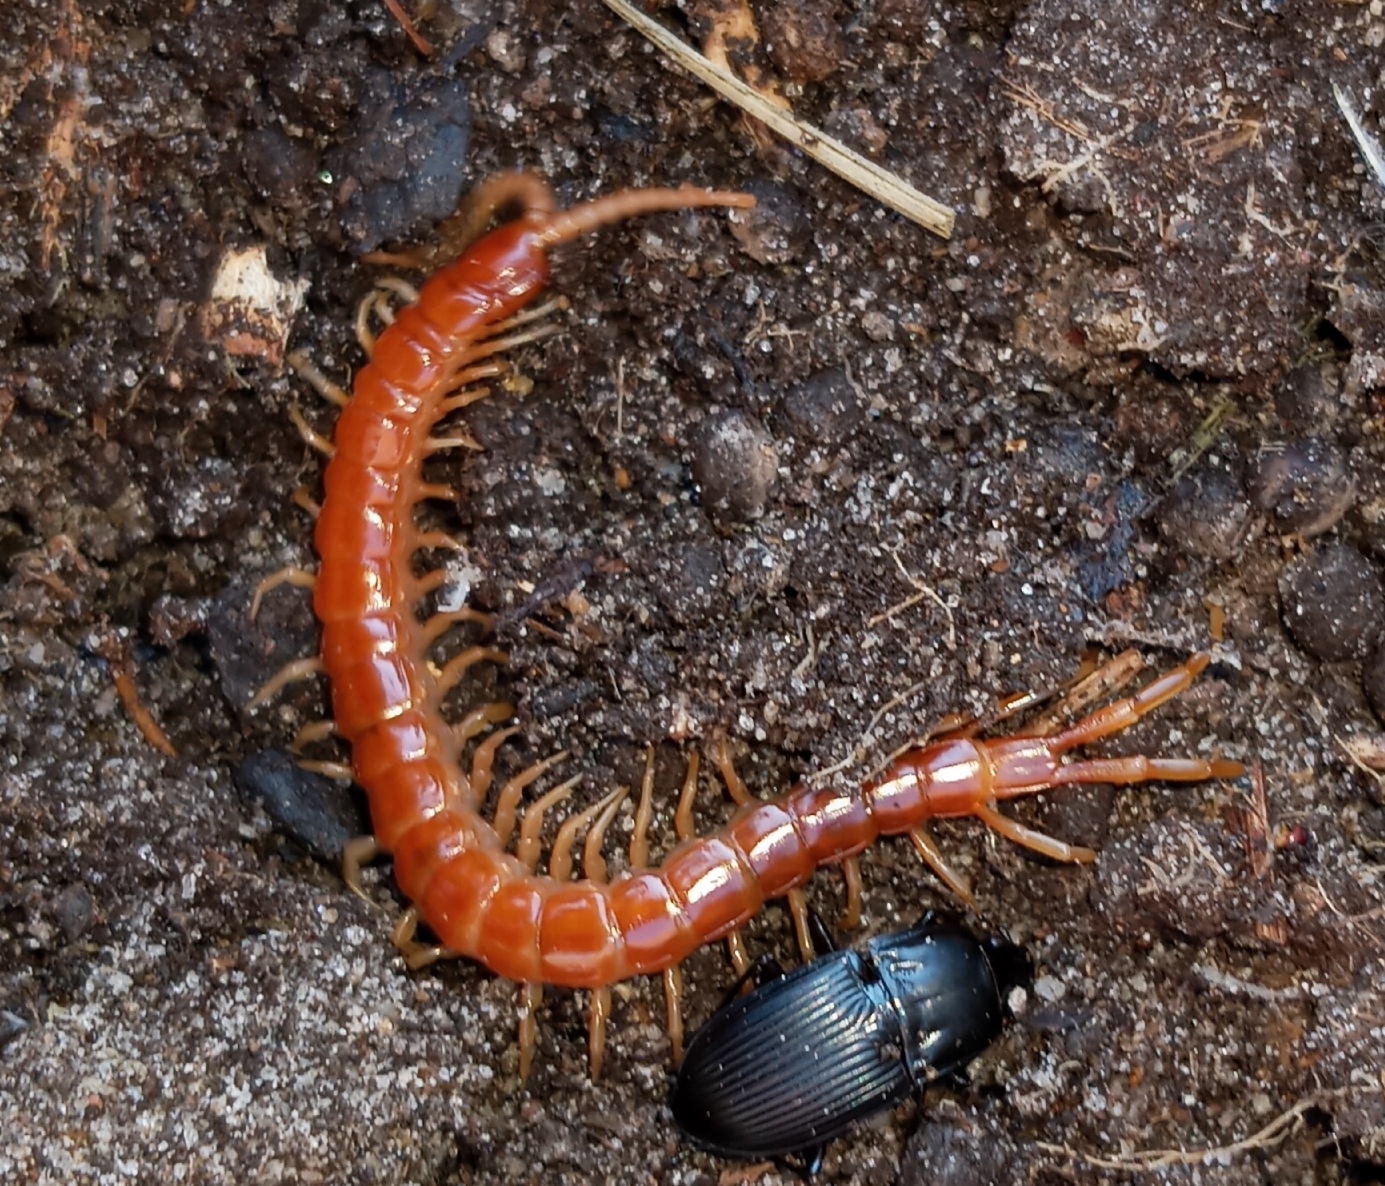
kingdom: Animalia
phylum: Arthropoda
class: Chilopoda
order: Scolopendromorpha
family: Scolopocryptopidae
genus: Scolopocryptops
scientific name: Scolopocryptops sexspinosus
